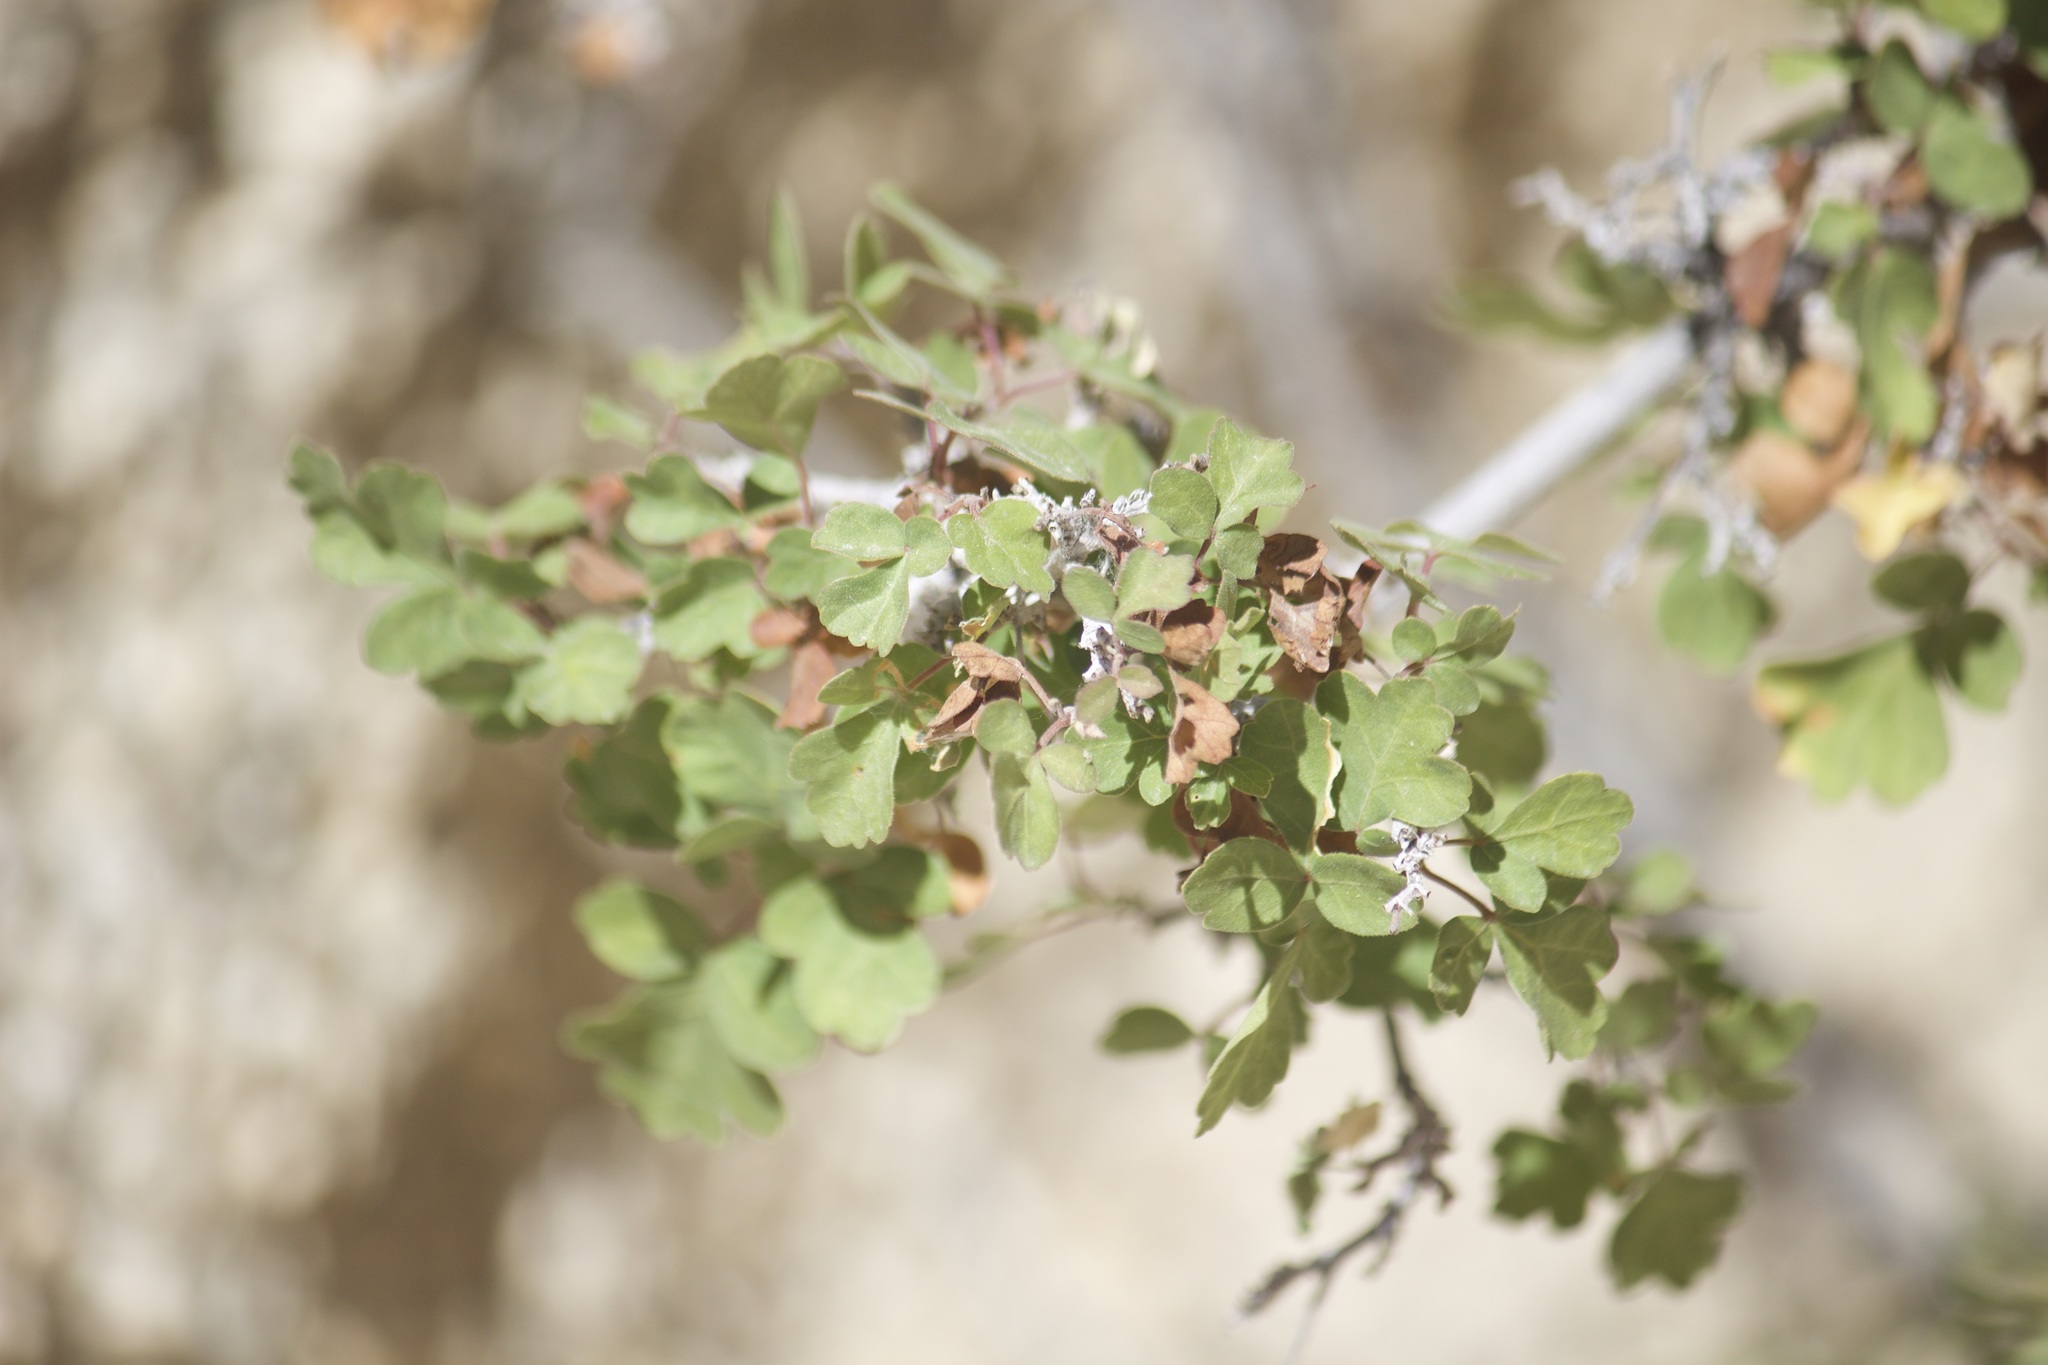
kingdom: Plantae
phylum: Tracheophyta
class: Magnoliopsida
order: Sapindales
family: Anacardiaceae
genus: Rhus
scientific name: Rhus aromatica
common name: Aromatic sumac
